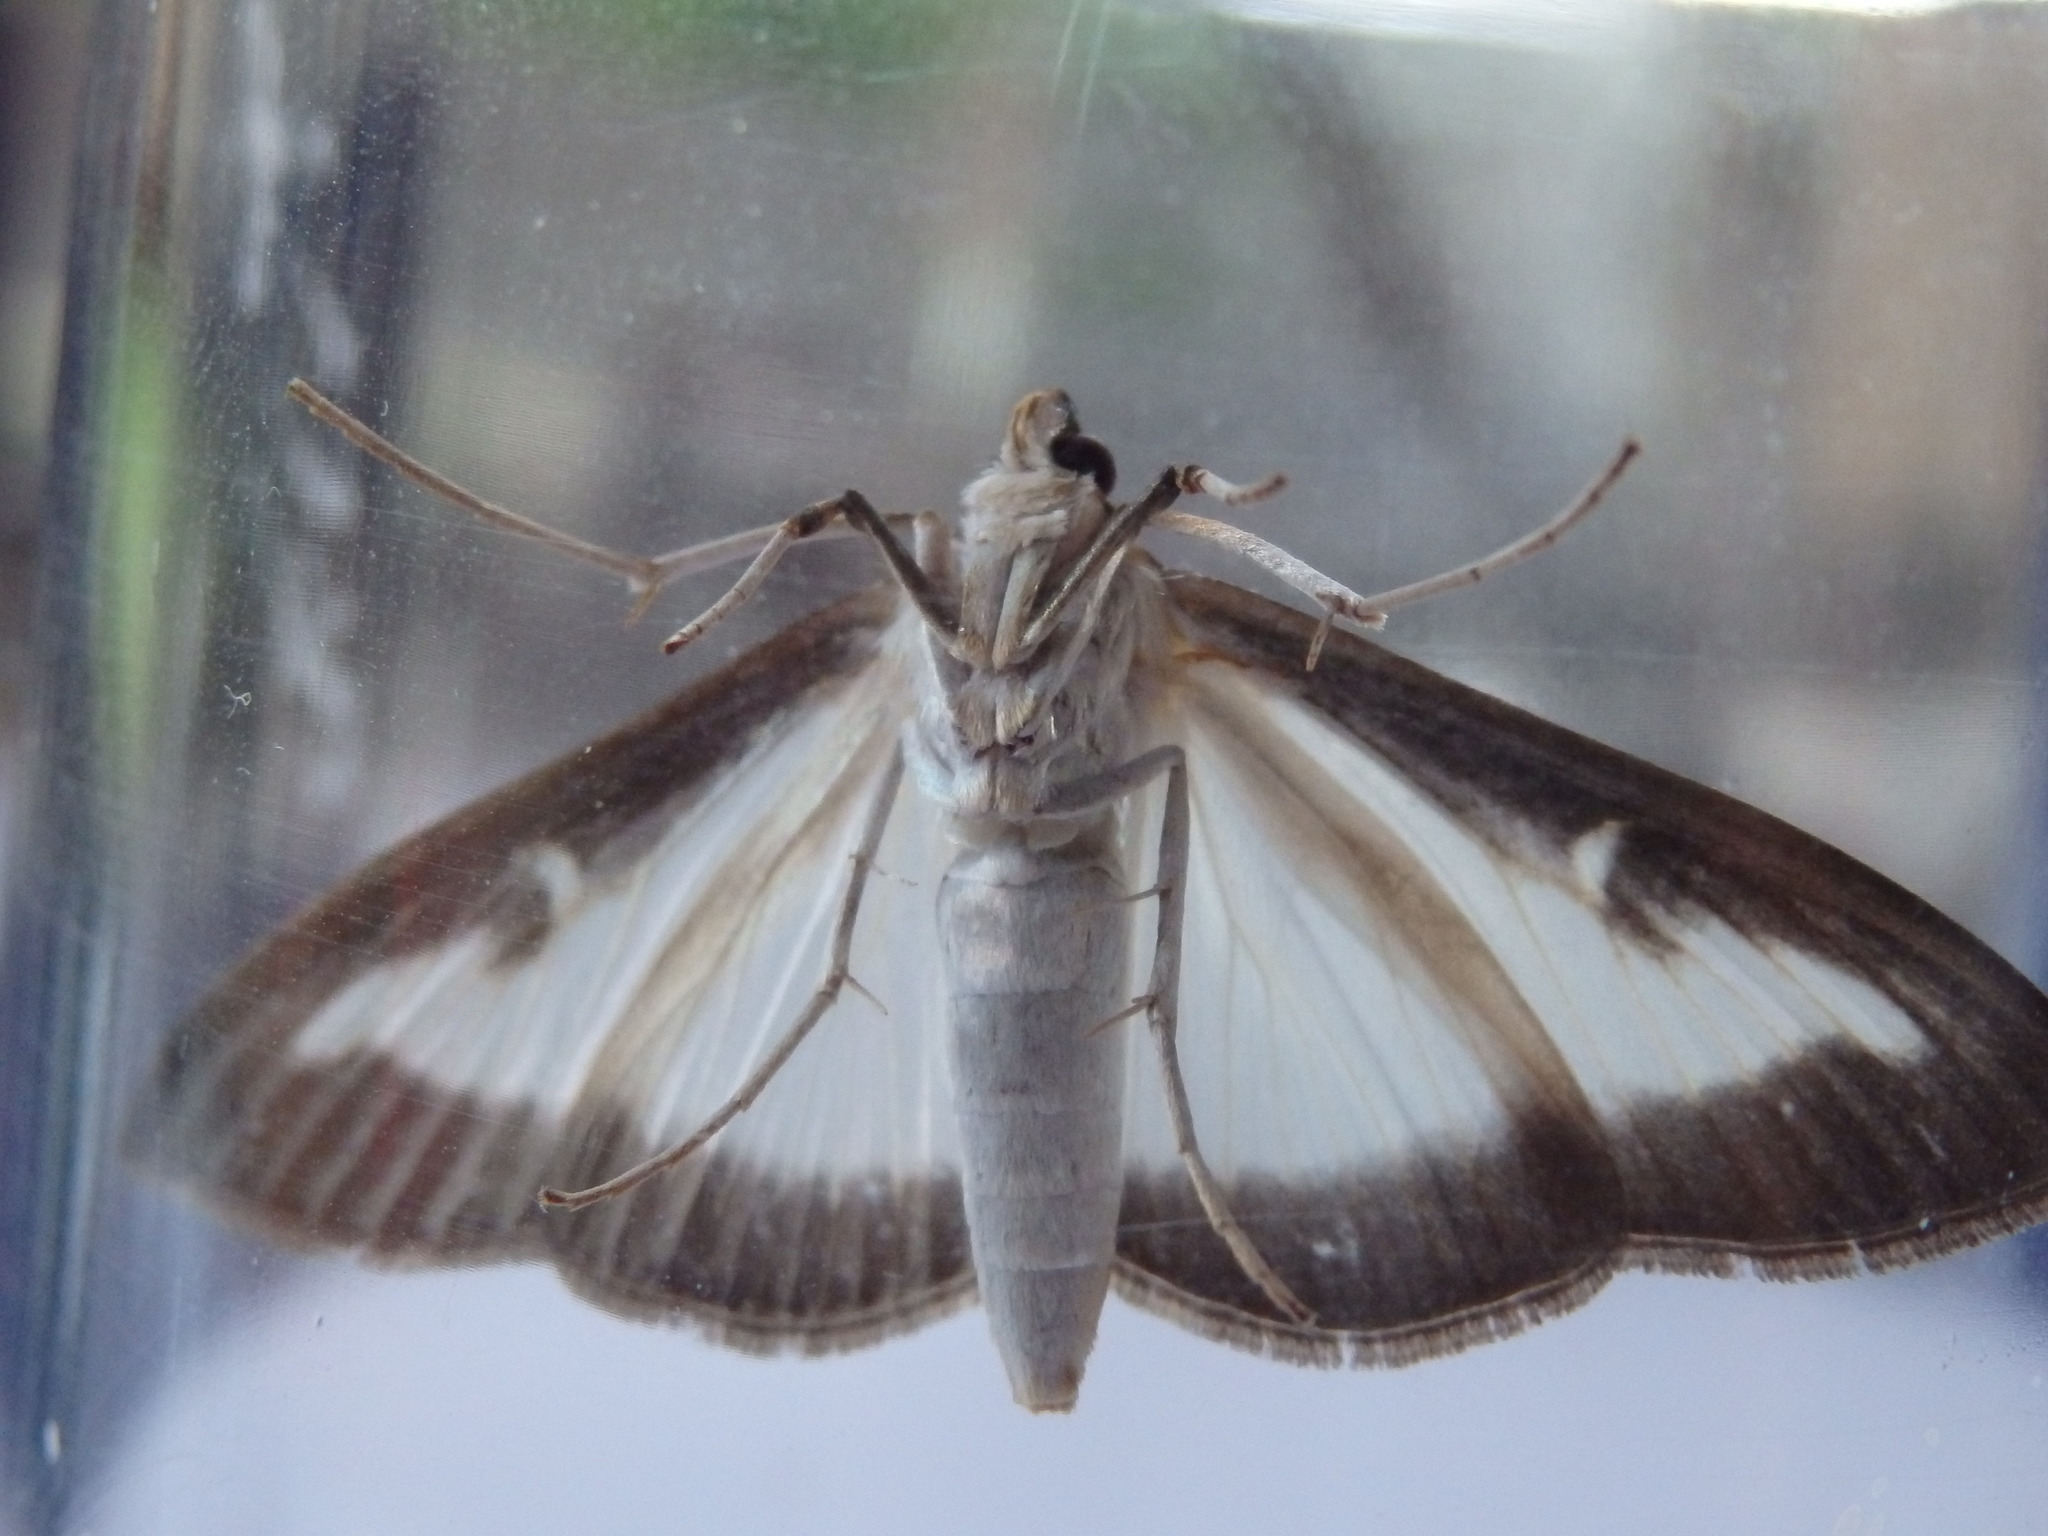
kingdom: Animalia
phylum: Arthropoda
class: Insecta
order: Lepidoptera
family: Crambidae
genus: Cydalima
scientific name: Cydalima perspectalis
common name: Box tree moth
